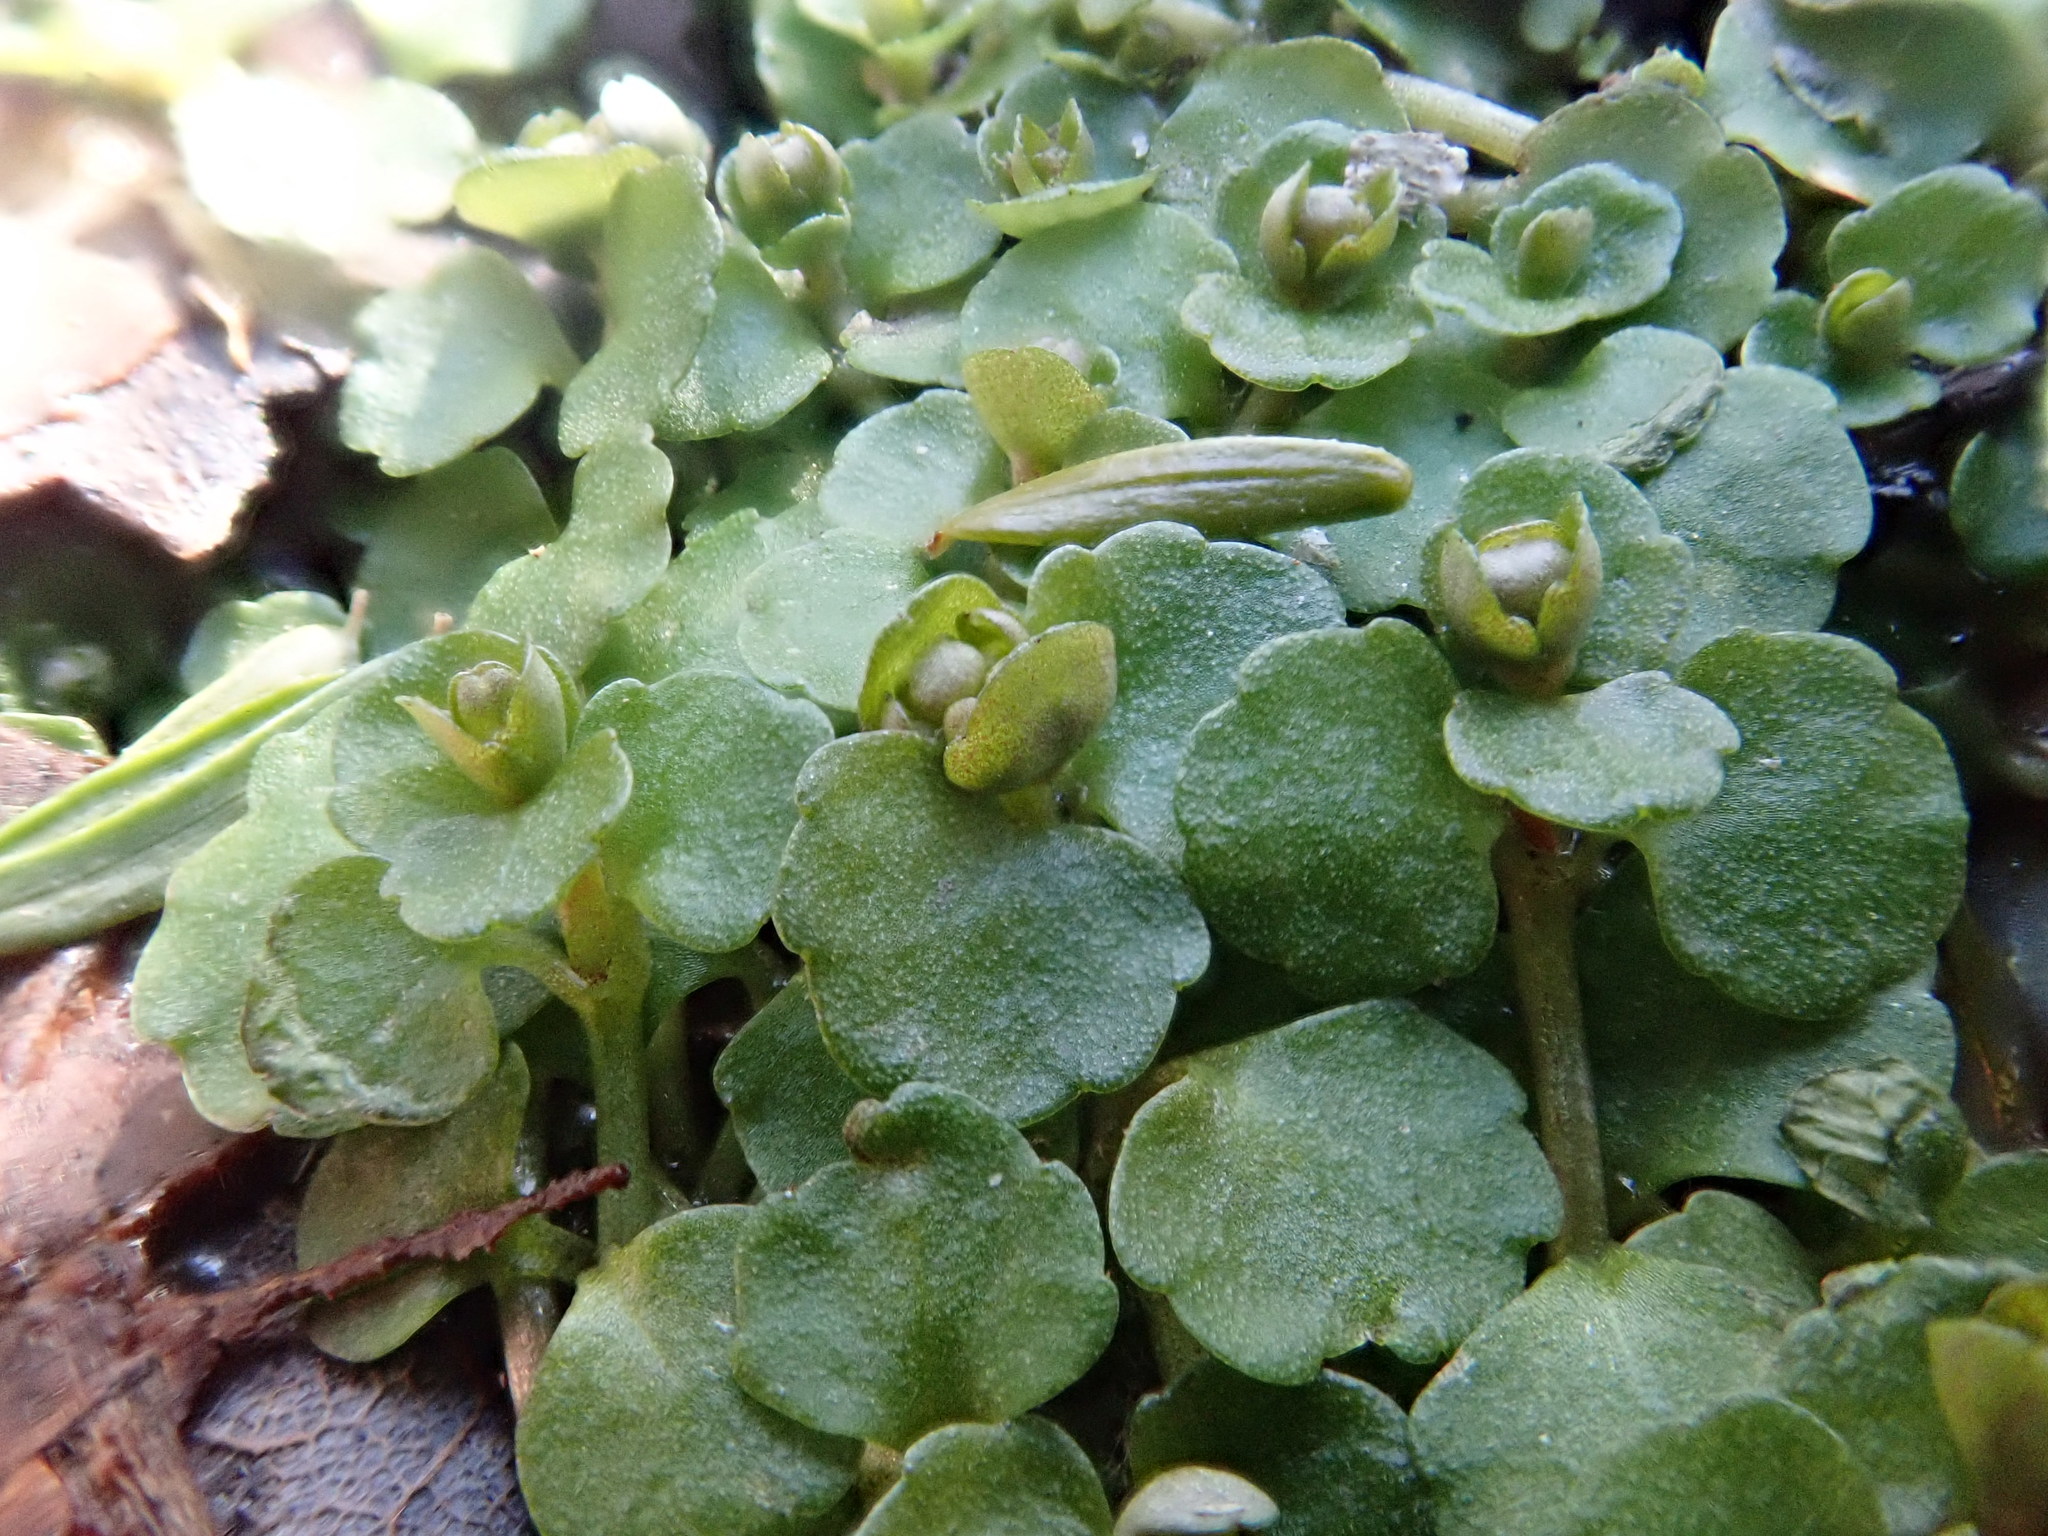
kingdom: Plantae
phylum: Tracheophyta
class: Magnoliopsida
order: Saxifragales
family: Saxifragaceae
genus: Chrysosplenium
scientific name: Chrysosplenium americanum
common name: American golden-saxifrage
